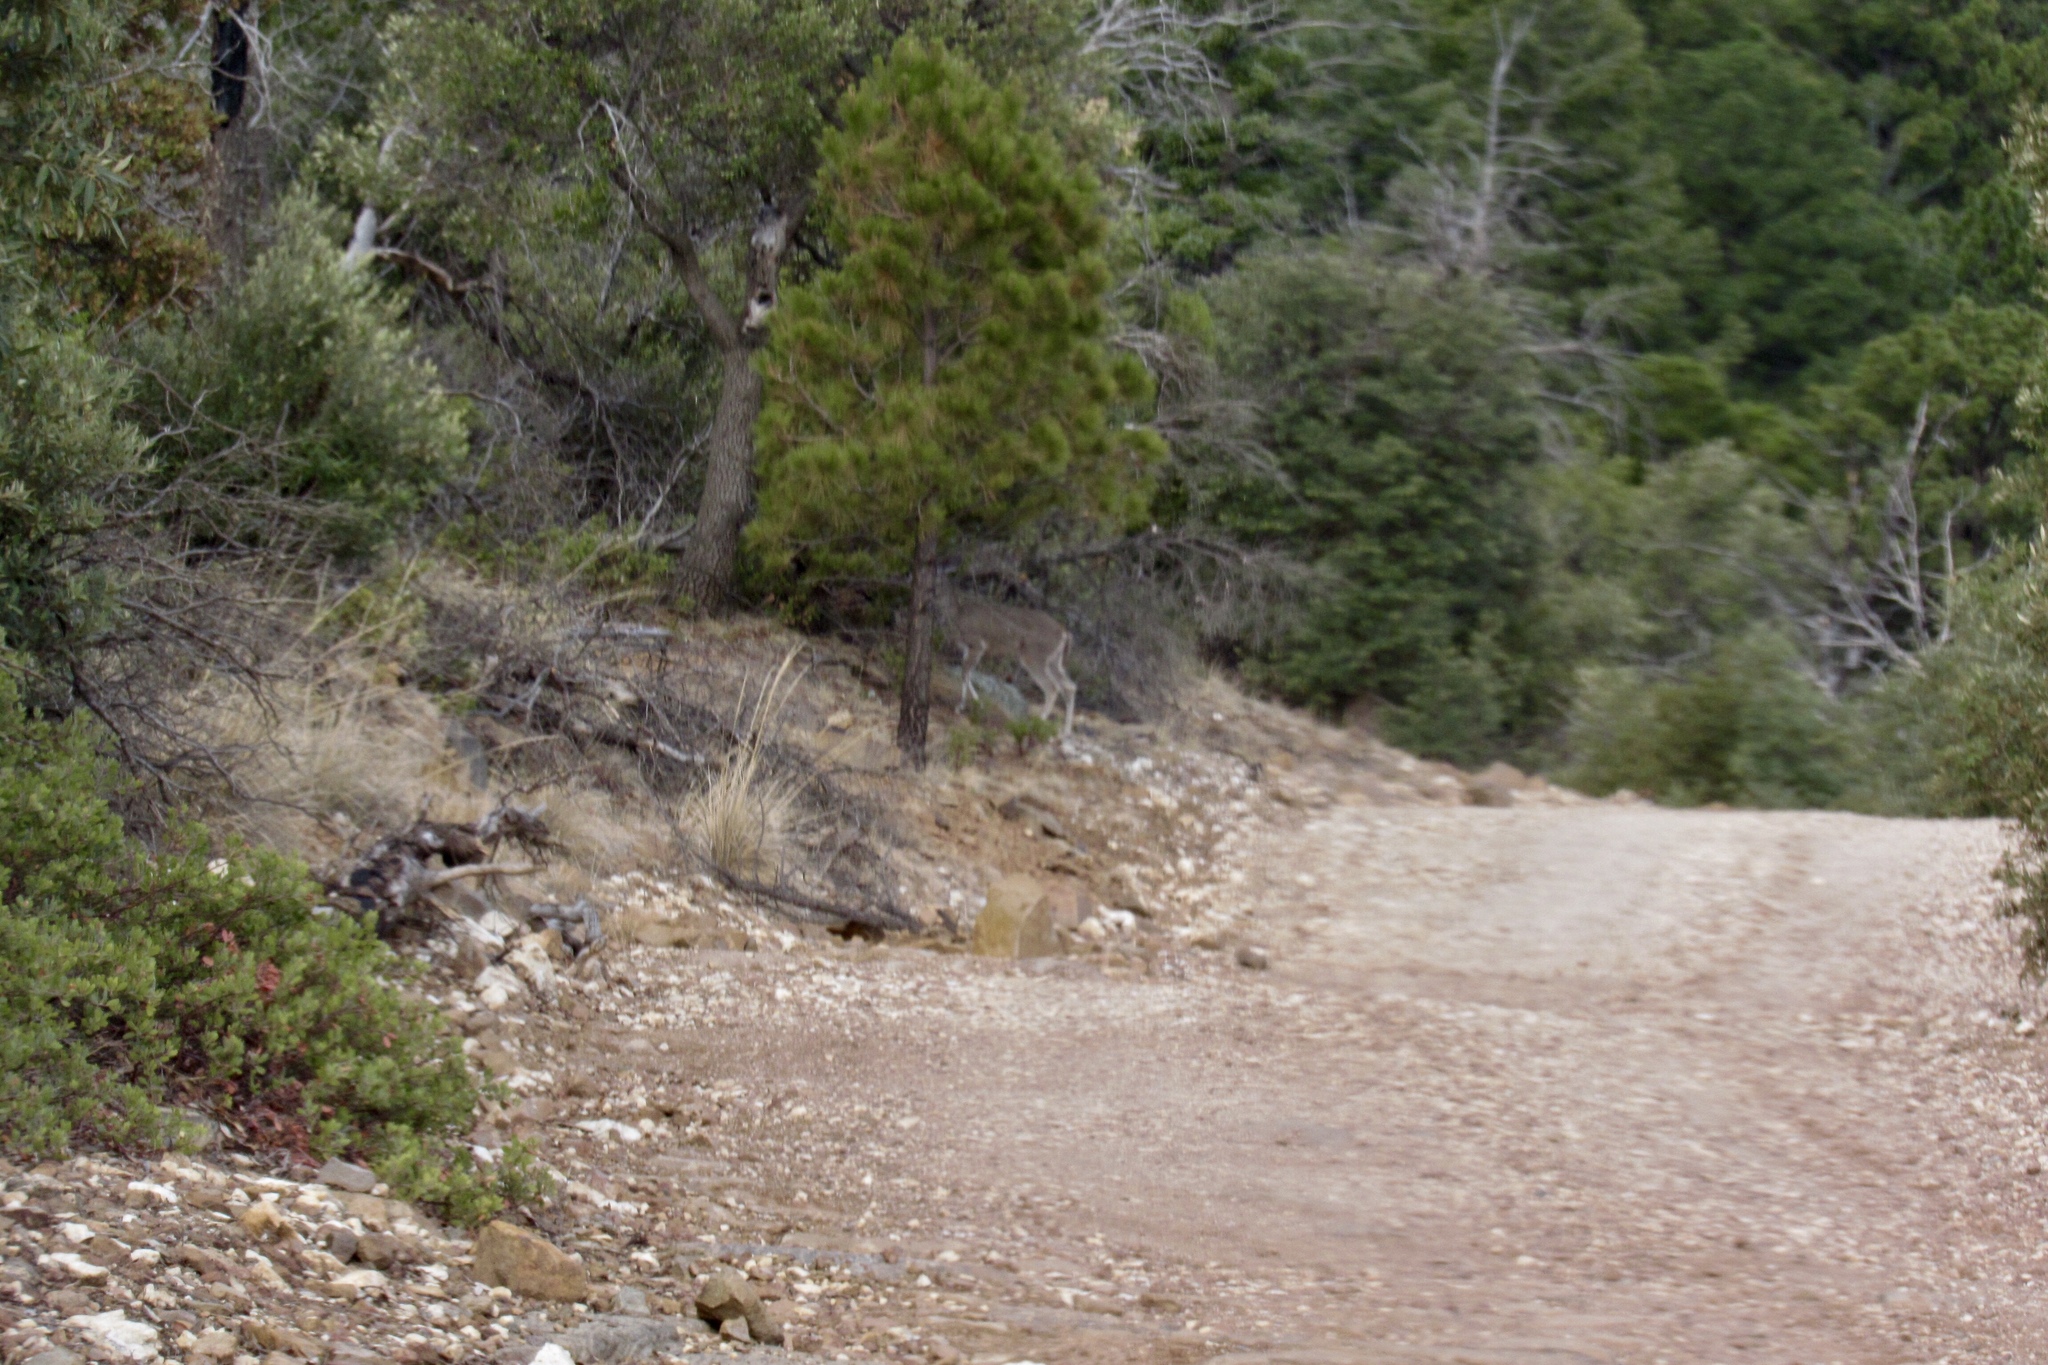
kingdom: Animalia
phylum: Chordata
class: Mammalia
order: Artiodactyla
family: Cervidae
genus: Odocoileus
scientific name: Odocoileus virginianus
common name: White-tailed deer
